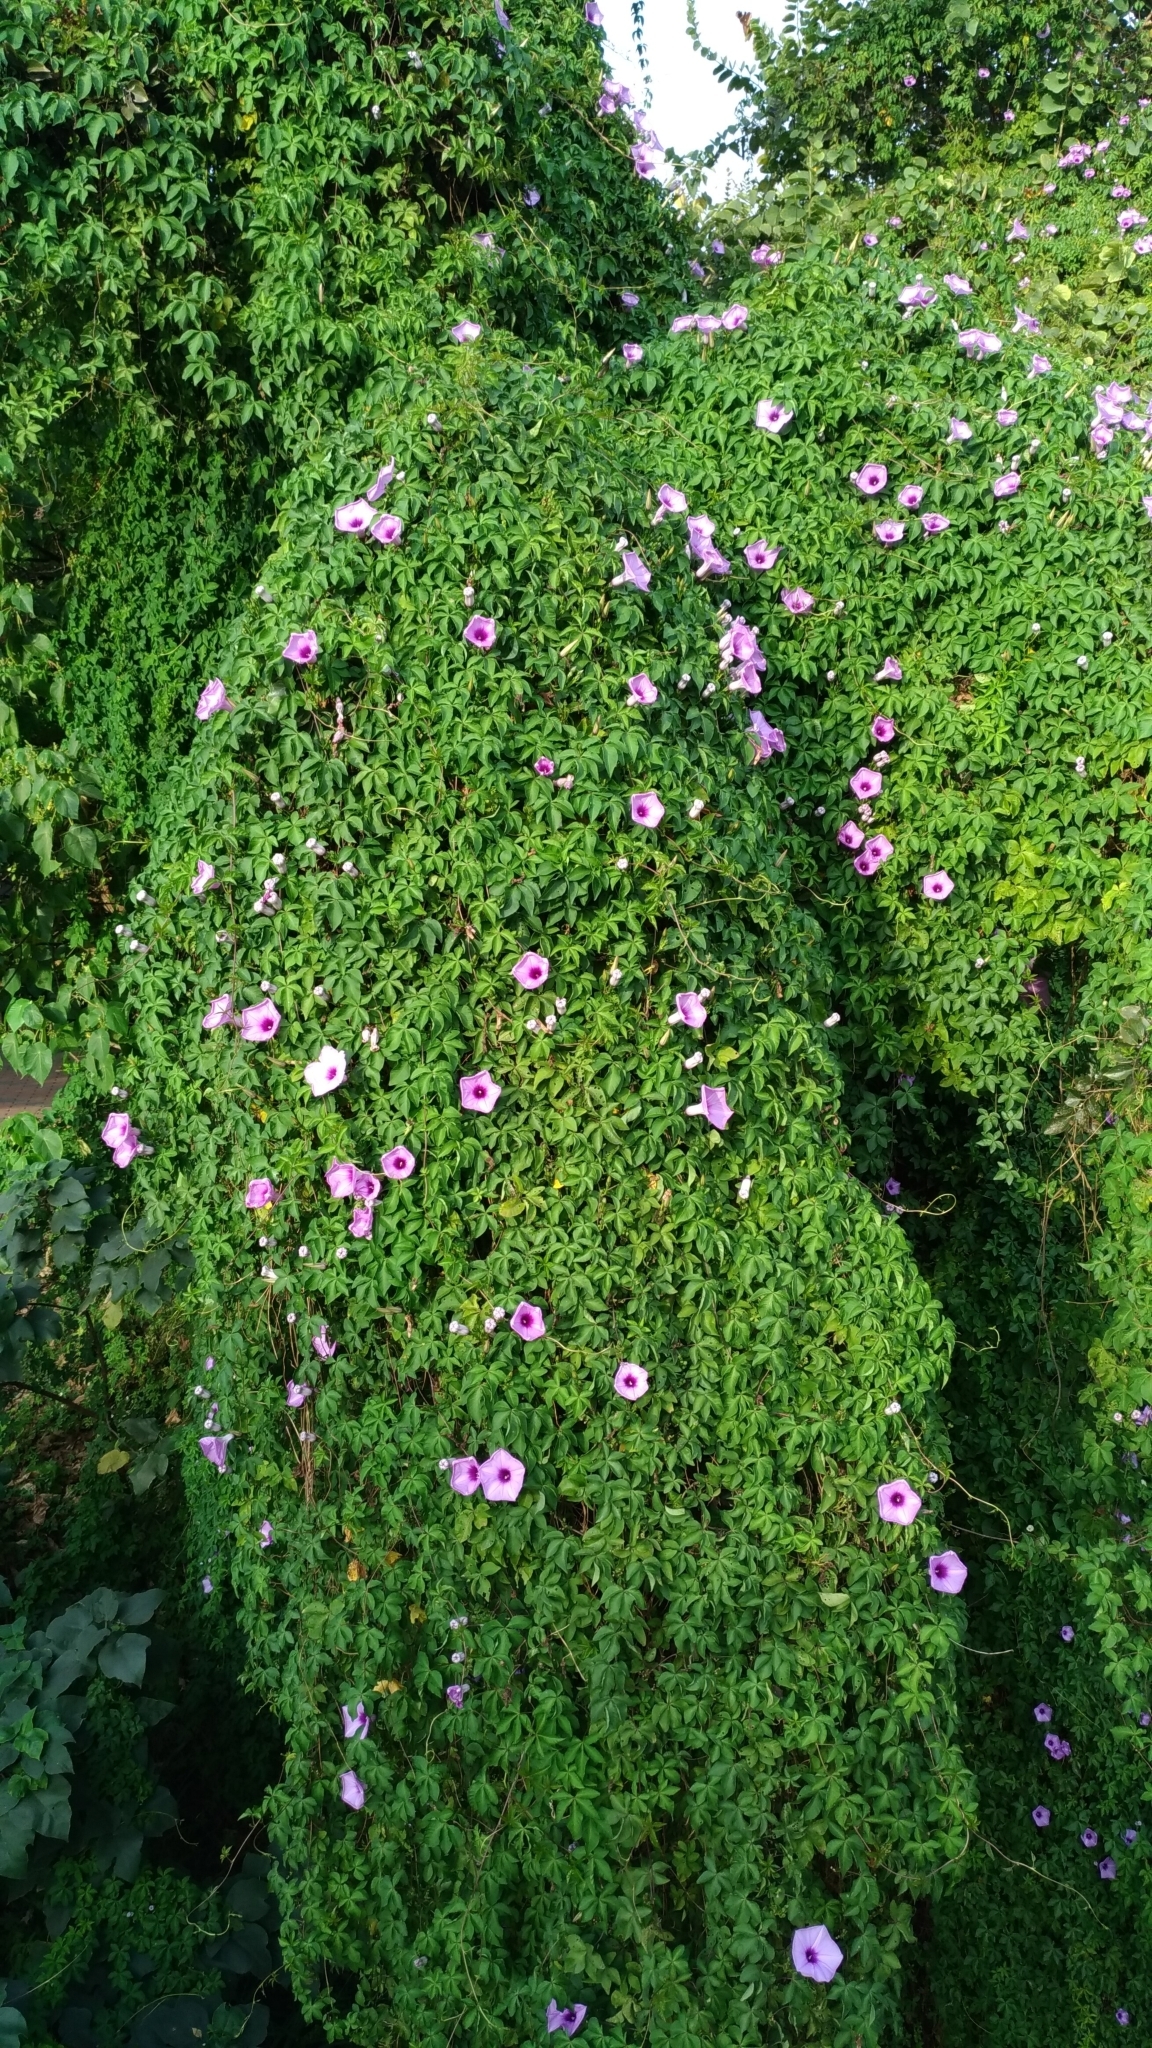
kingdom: Plantae
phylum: Tracheophyta
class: Magnoliopsida
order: Solanales
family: Convolvulaceae
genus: Ipomoea
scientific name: Ipomoea cairica
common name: Mile a minute vine
